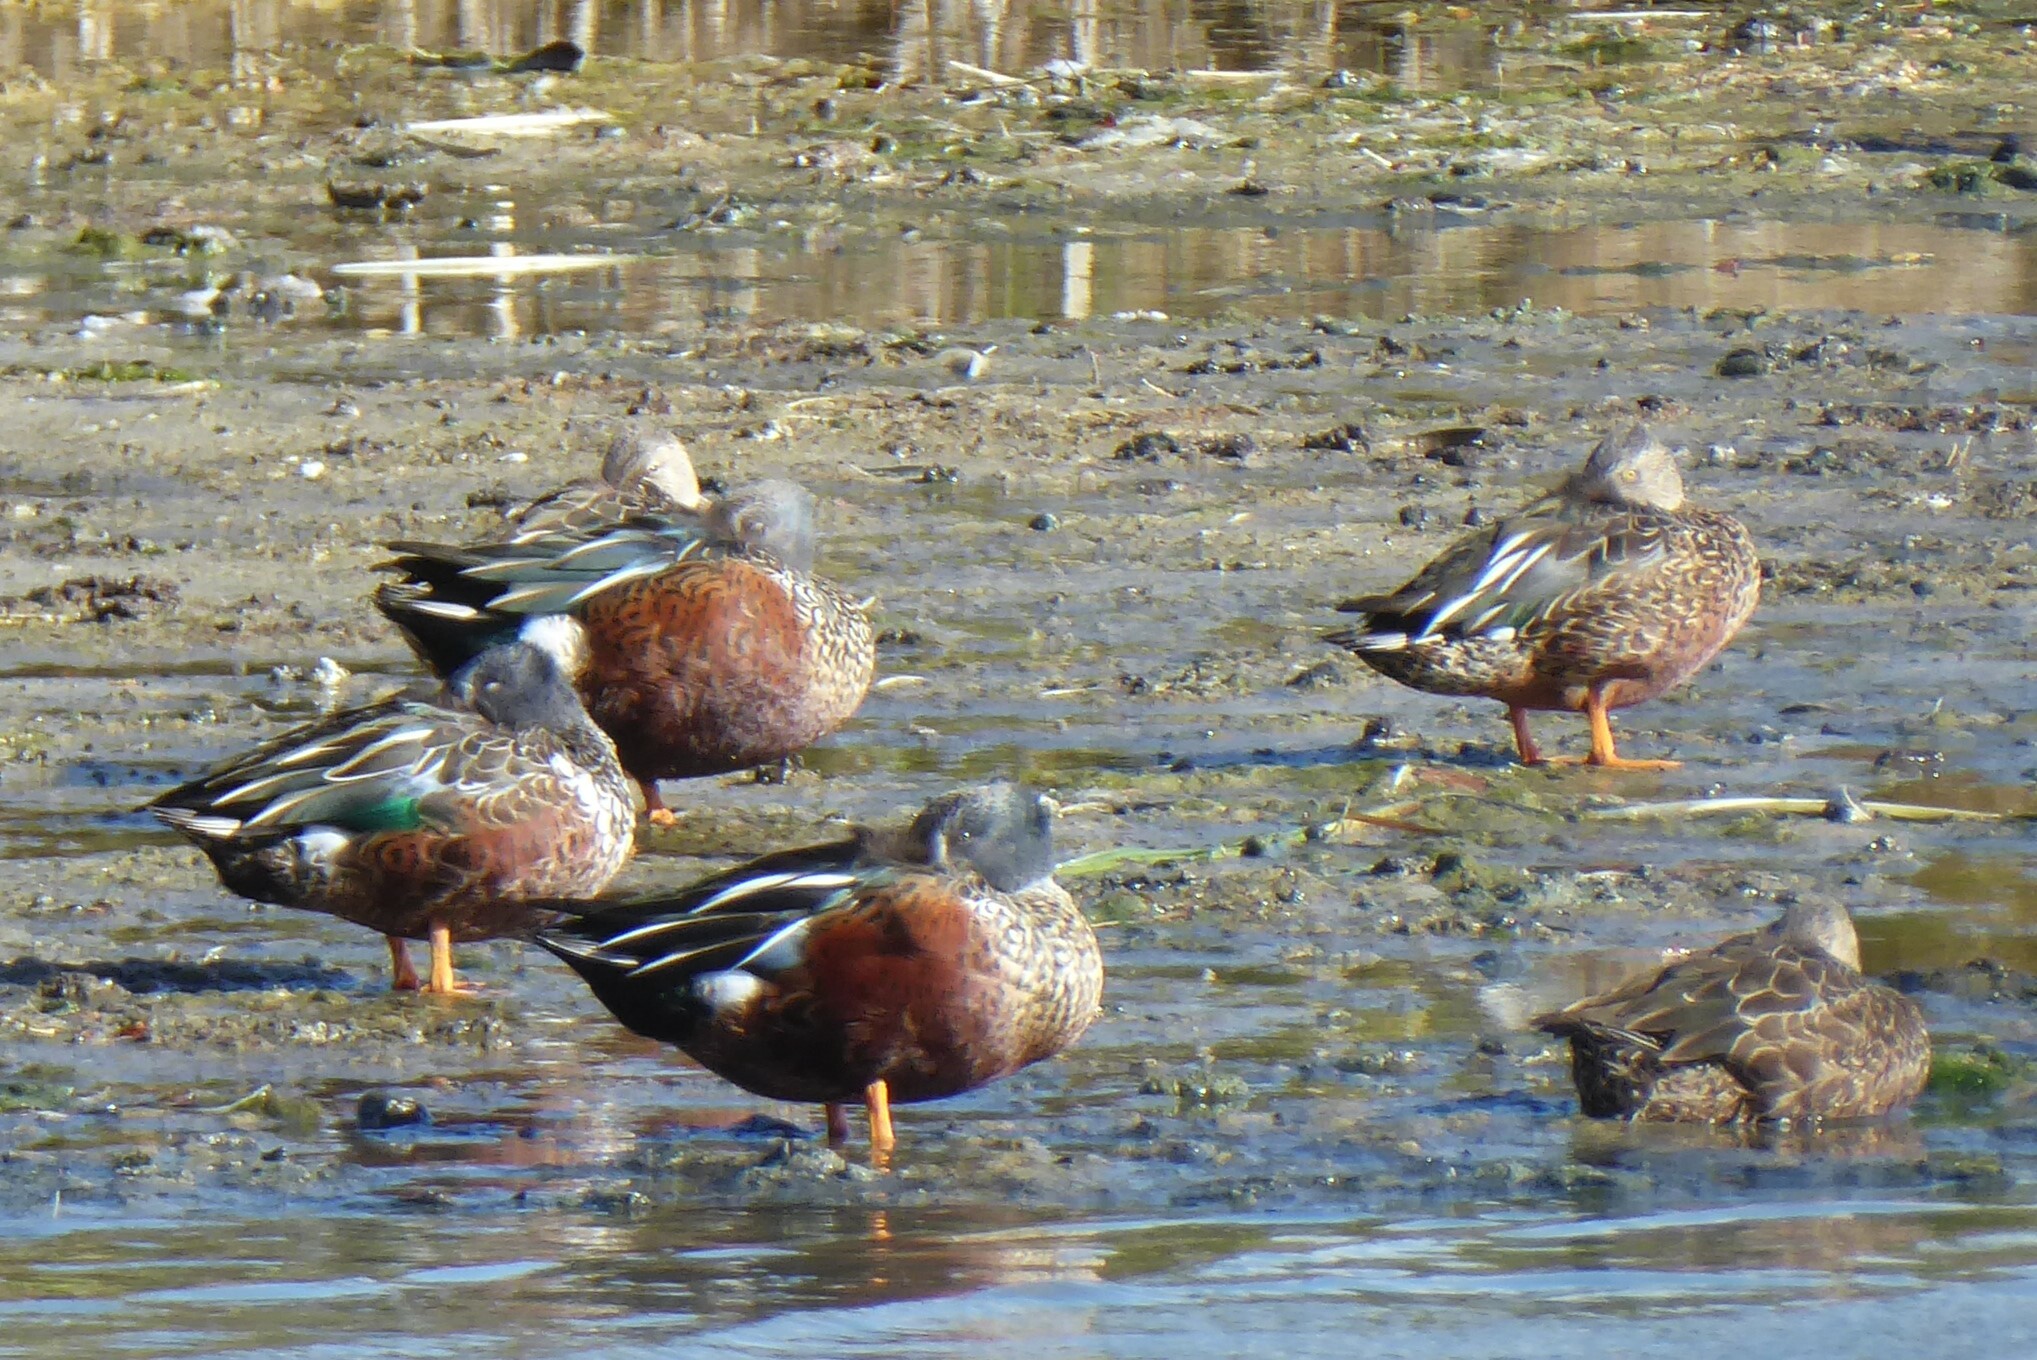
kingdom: Animalia
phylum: Chordata
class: Aves
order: Anseriformes
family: Anatidae
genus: Spatula
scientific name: Spatula rhynchotis
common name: Australian shoveler
